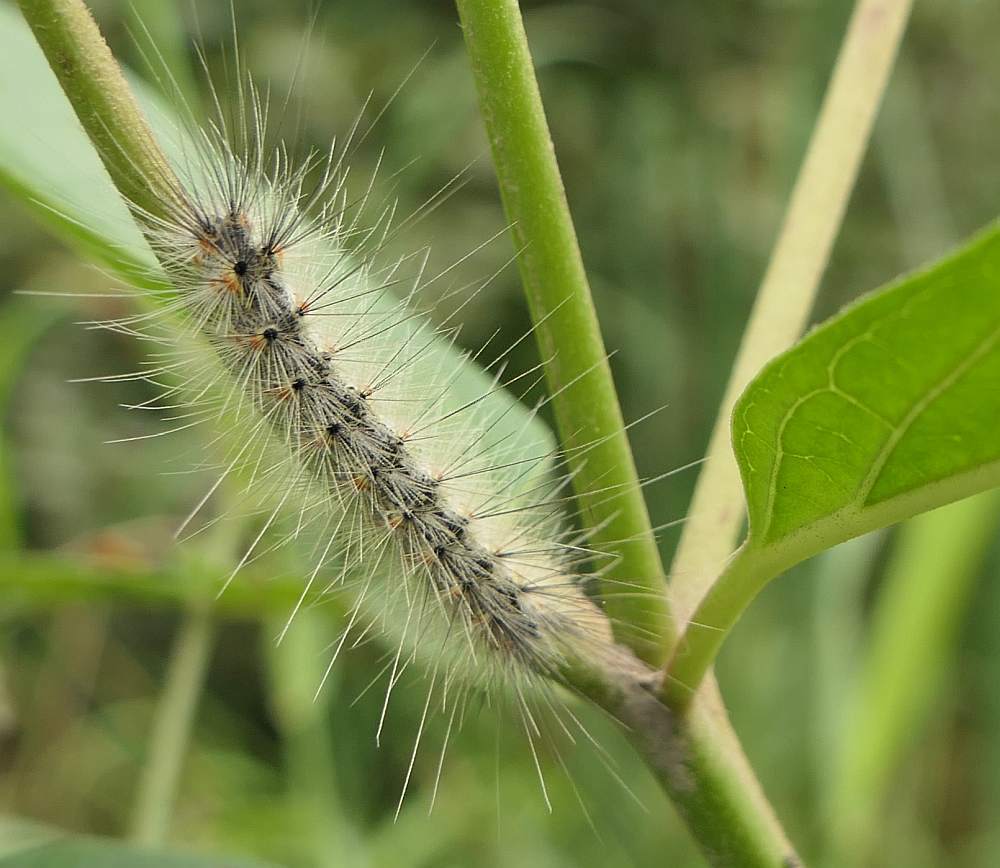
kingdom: Animalia
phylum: Arthropoda
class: Insecta
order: Lepidoptera
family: Erebidae
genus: Hyphantria
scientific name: Hyphantria cunea
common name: American white moth
